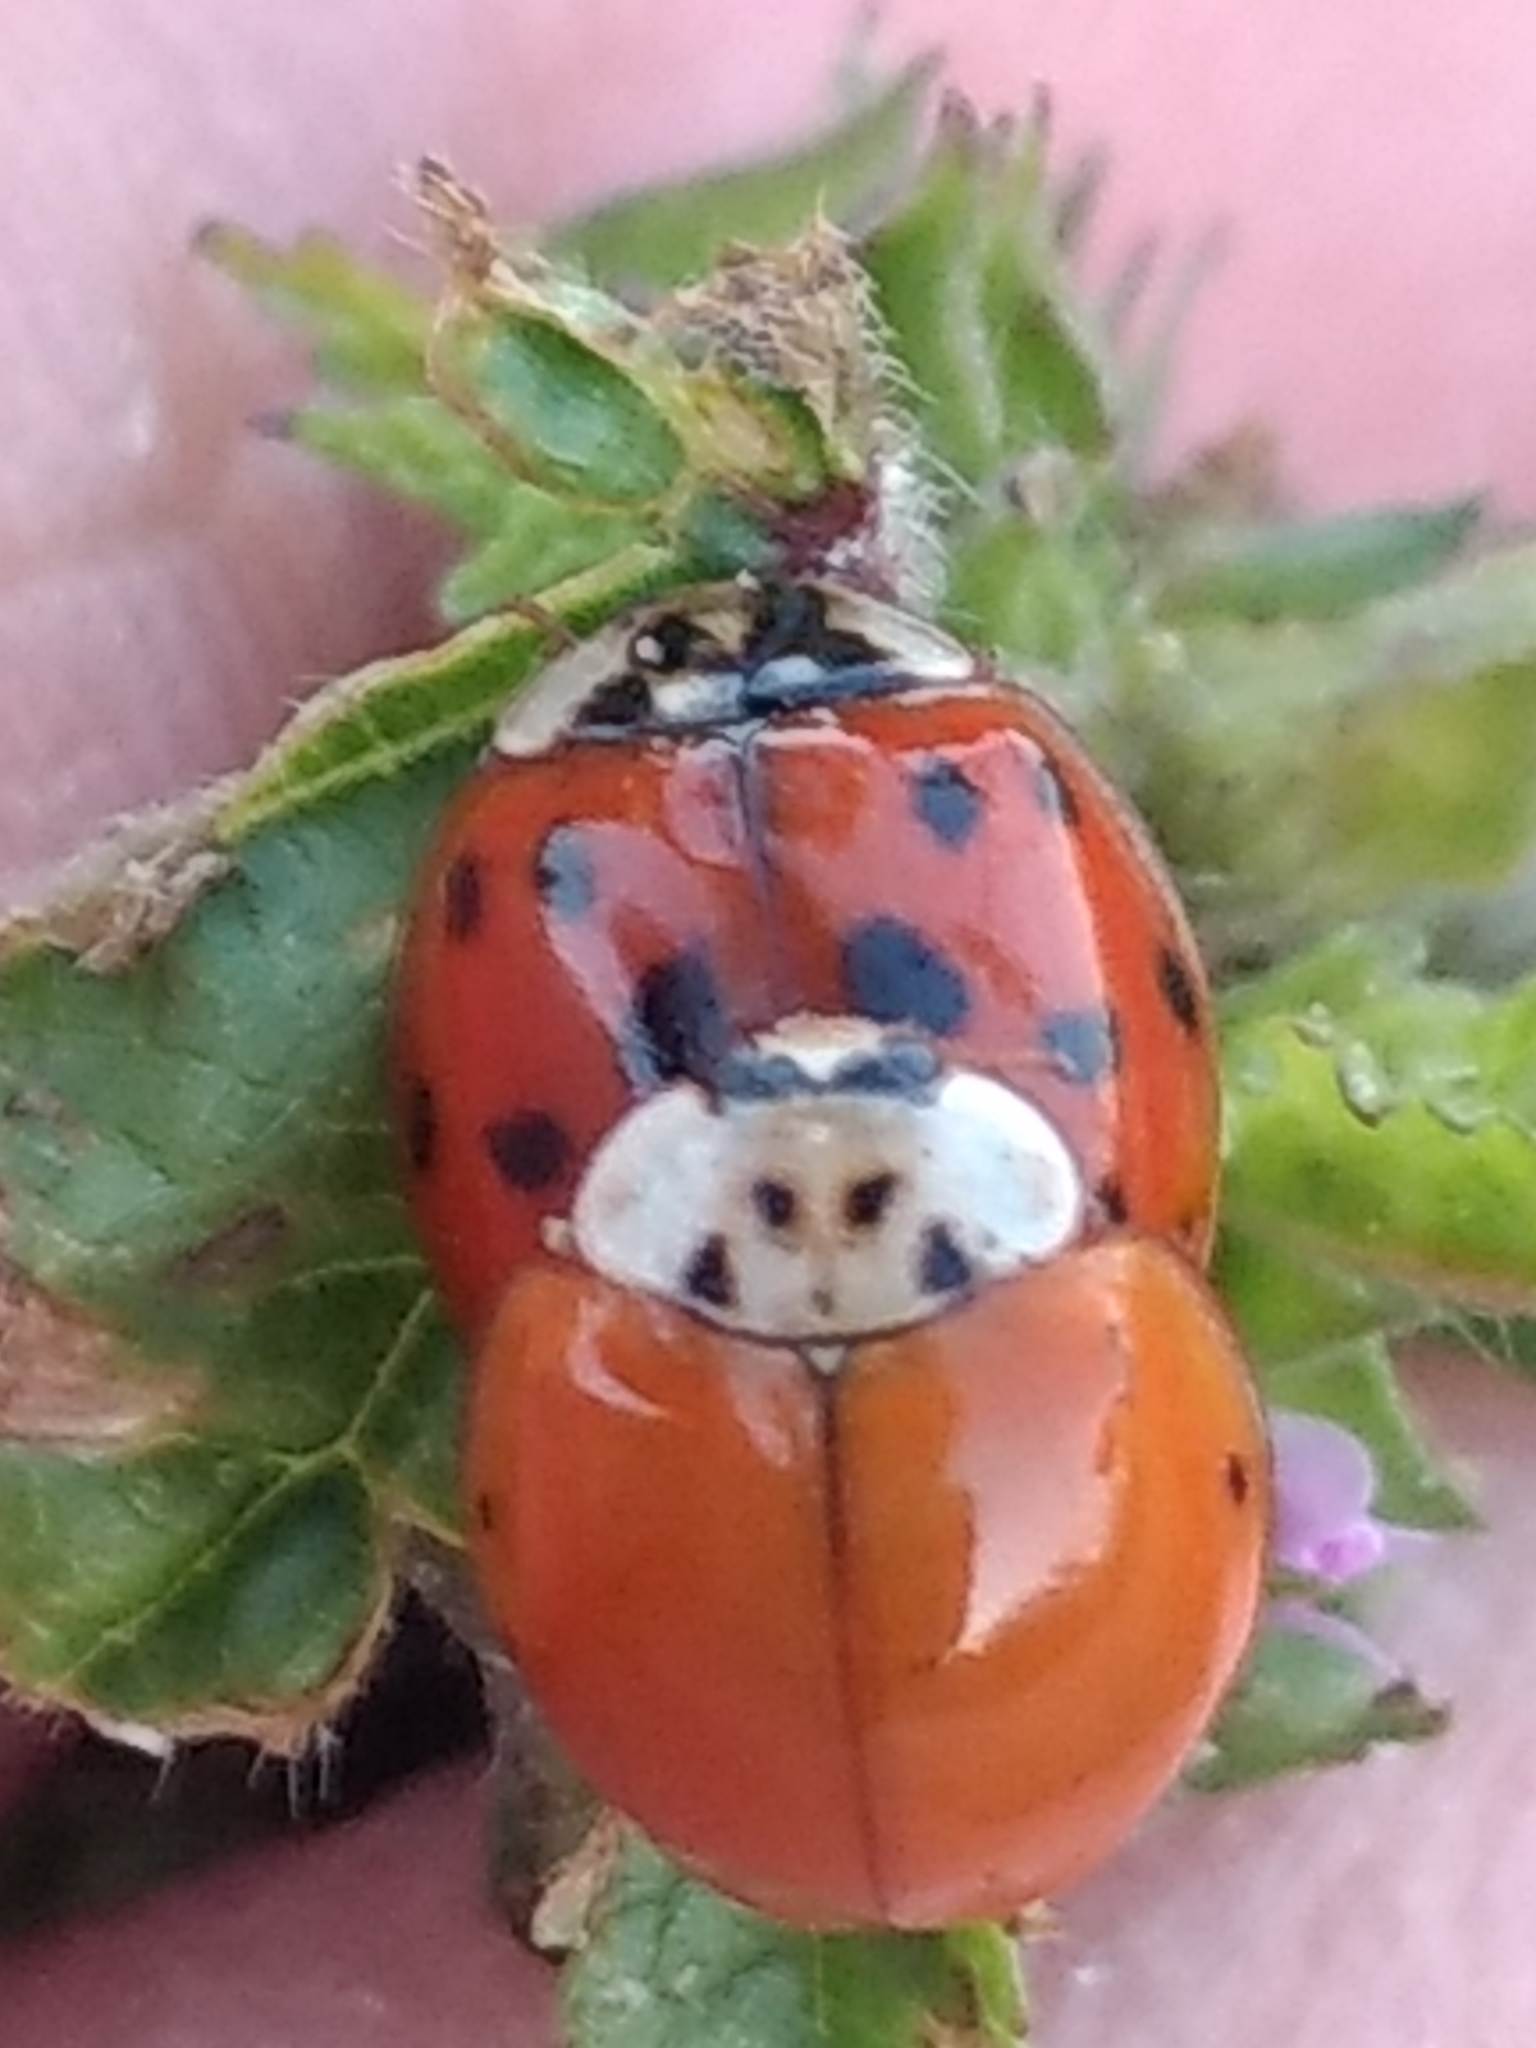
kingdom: Animalia
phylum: Arthropoda
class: Insecta
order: Coleoptera
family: Coccinellidae
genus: Harmonia
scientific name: Harmonia axyridis
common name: Harlequin ladybird
